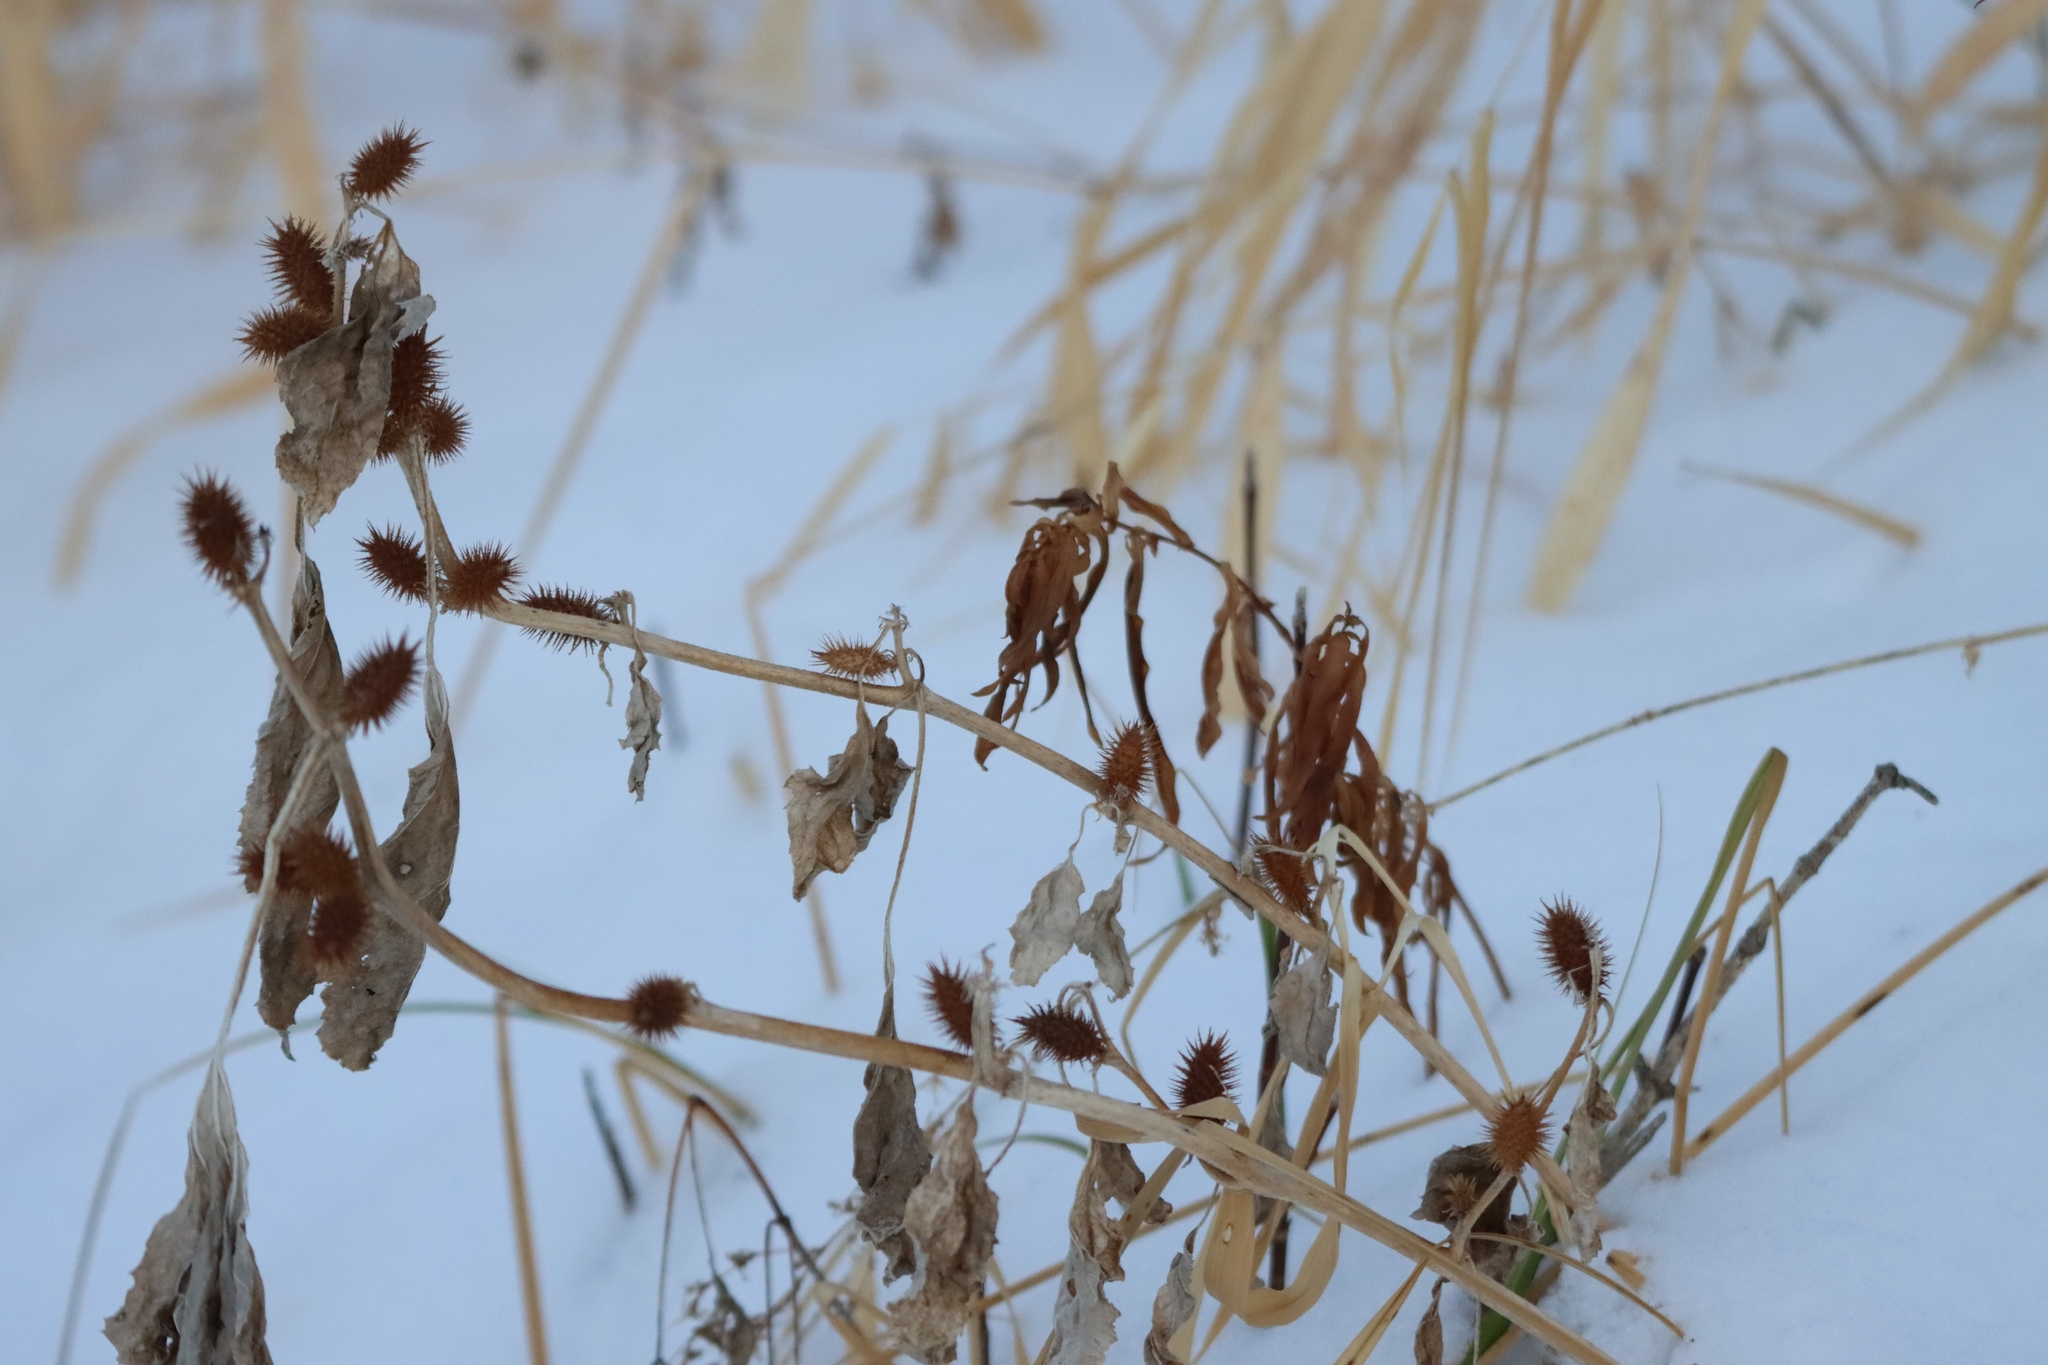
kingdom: Plantae
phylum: Tracheophyta
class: Magnoliopsida
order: Asterales
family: Asteraceae
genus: Xanthium
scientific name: Xanthium strumarium
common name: Rough cocklebur
